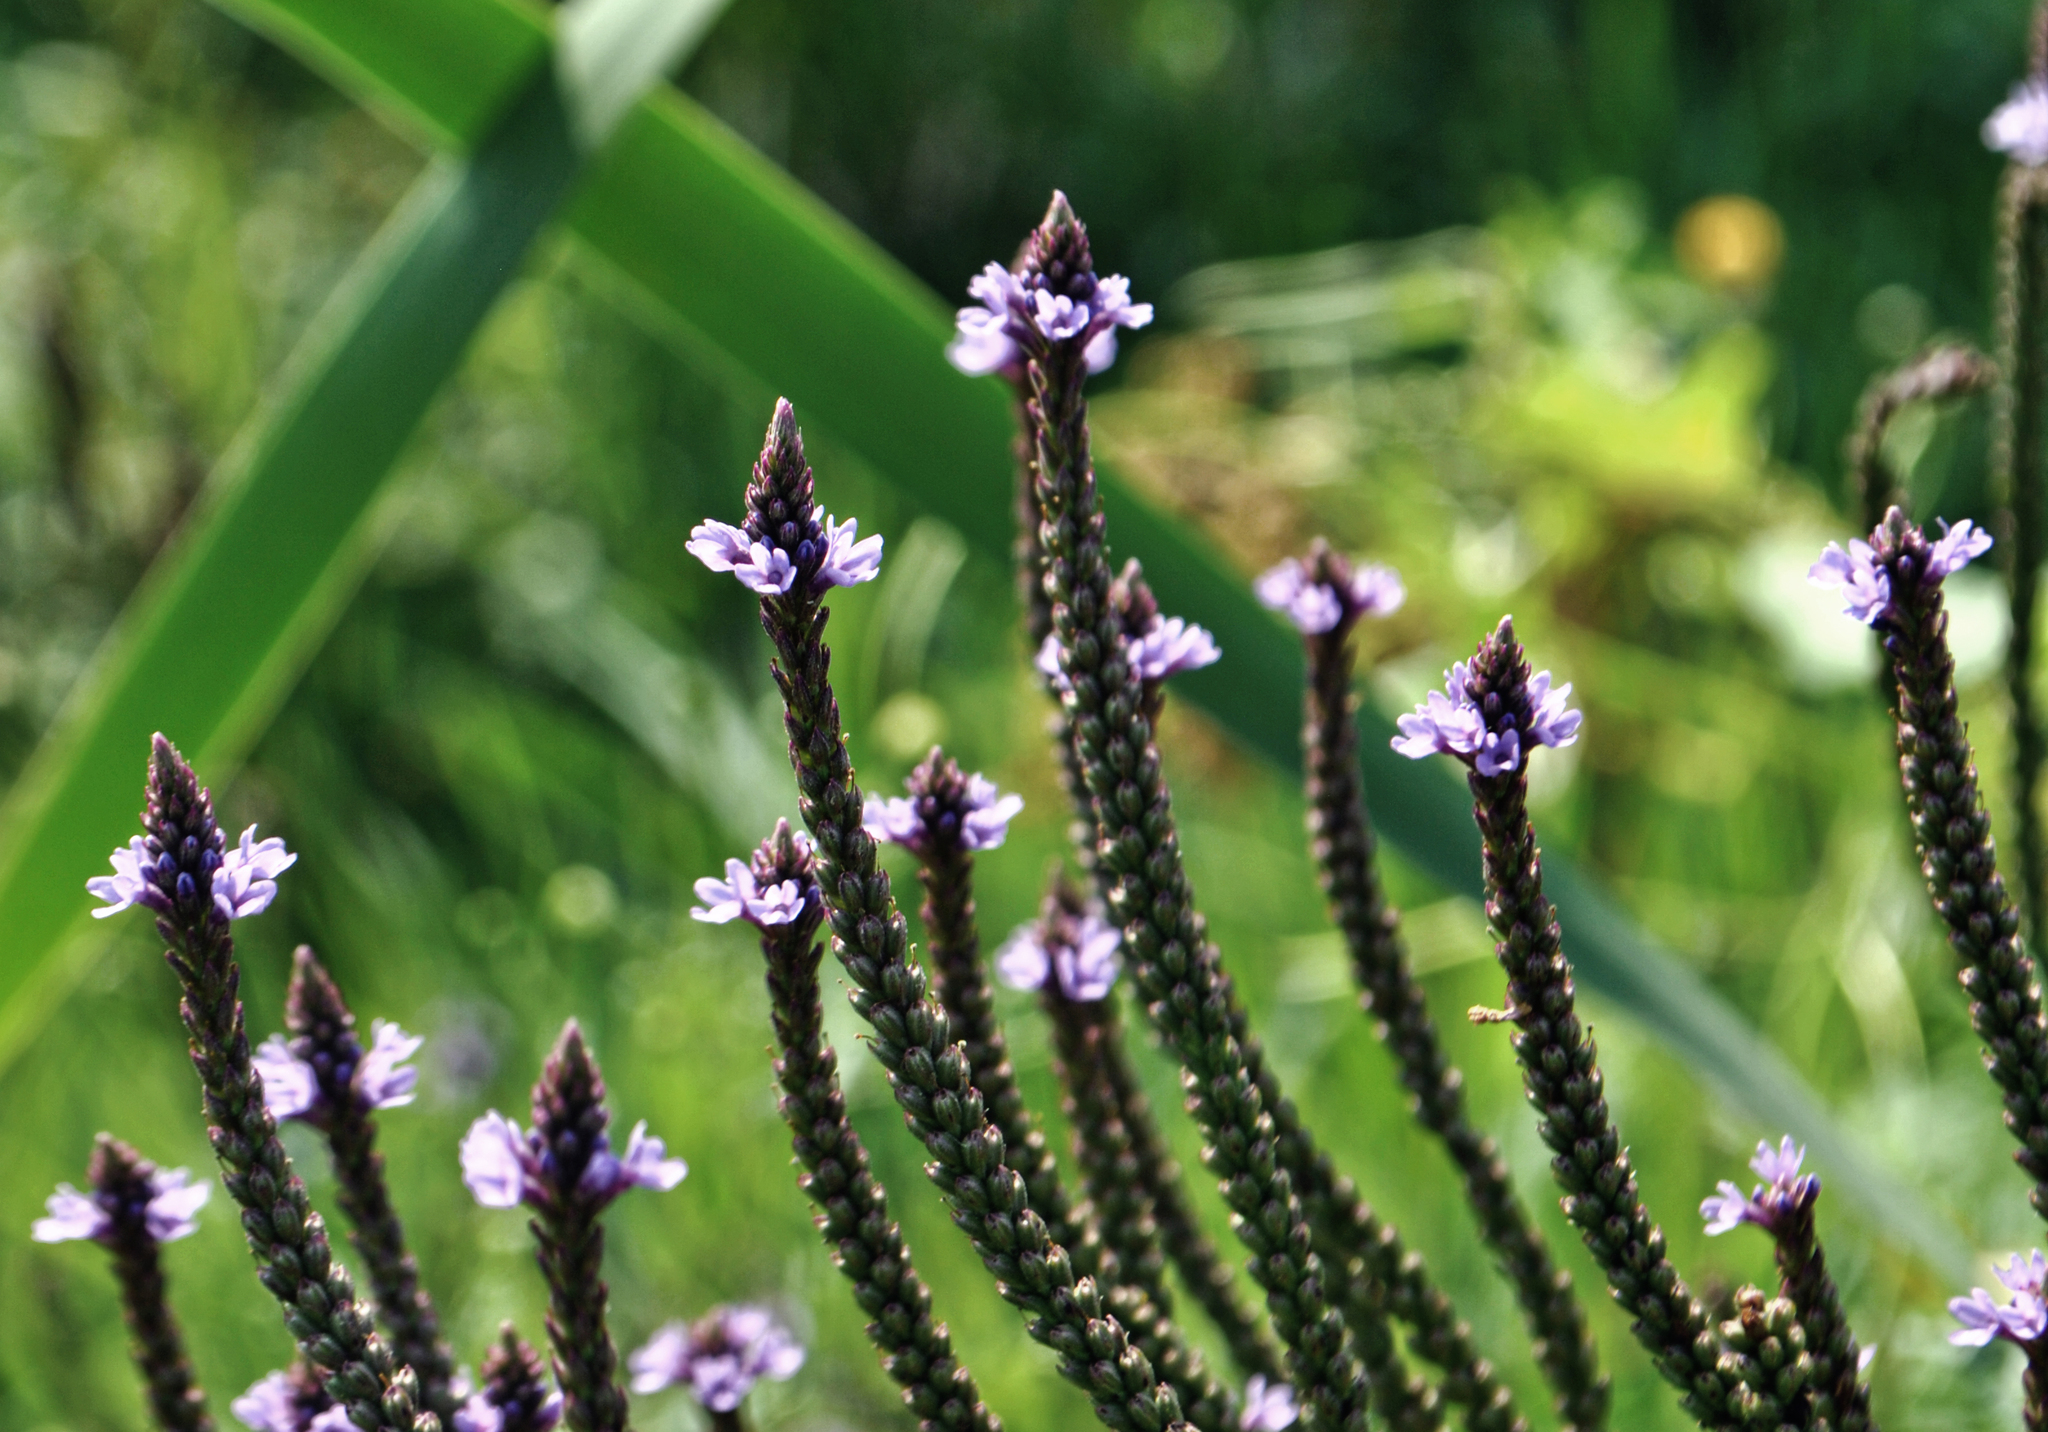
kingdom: Plantae
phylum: Tracheophyta
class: Magnoliopsida
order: Lamiales
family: Verbenaceae
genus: Verbena
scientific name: Verbena hastata
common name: American blue vervain
